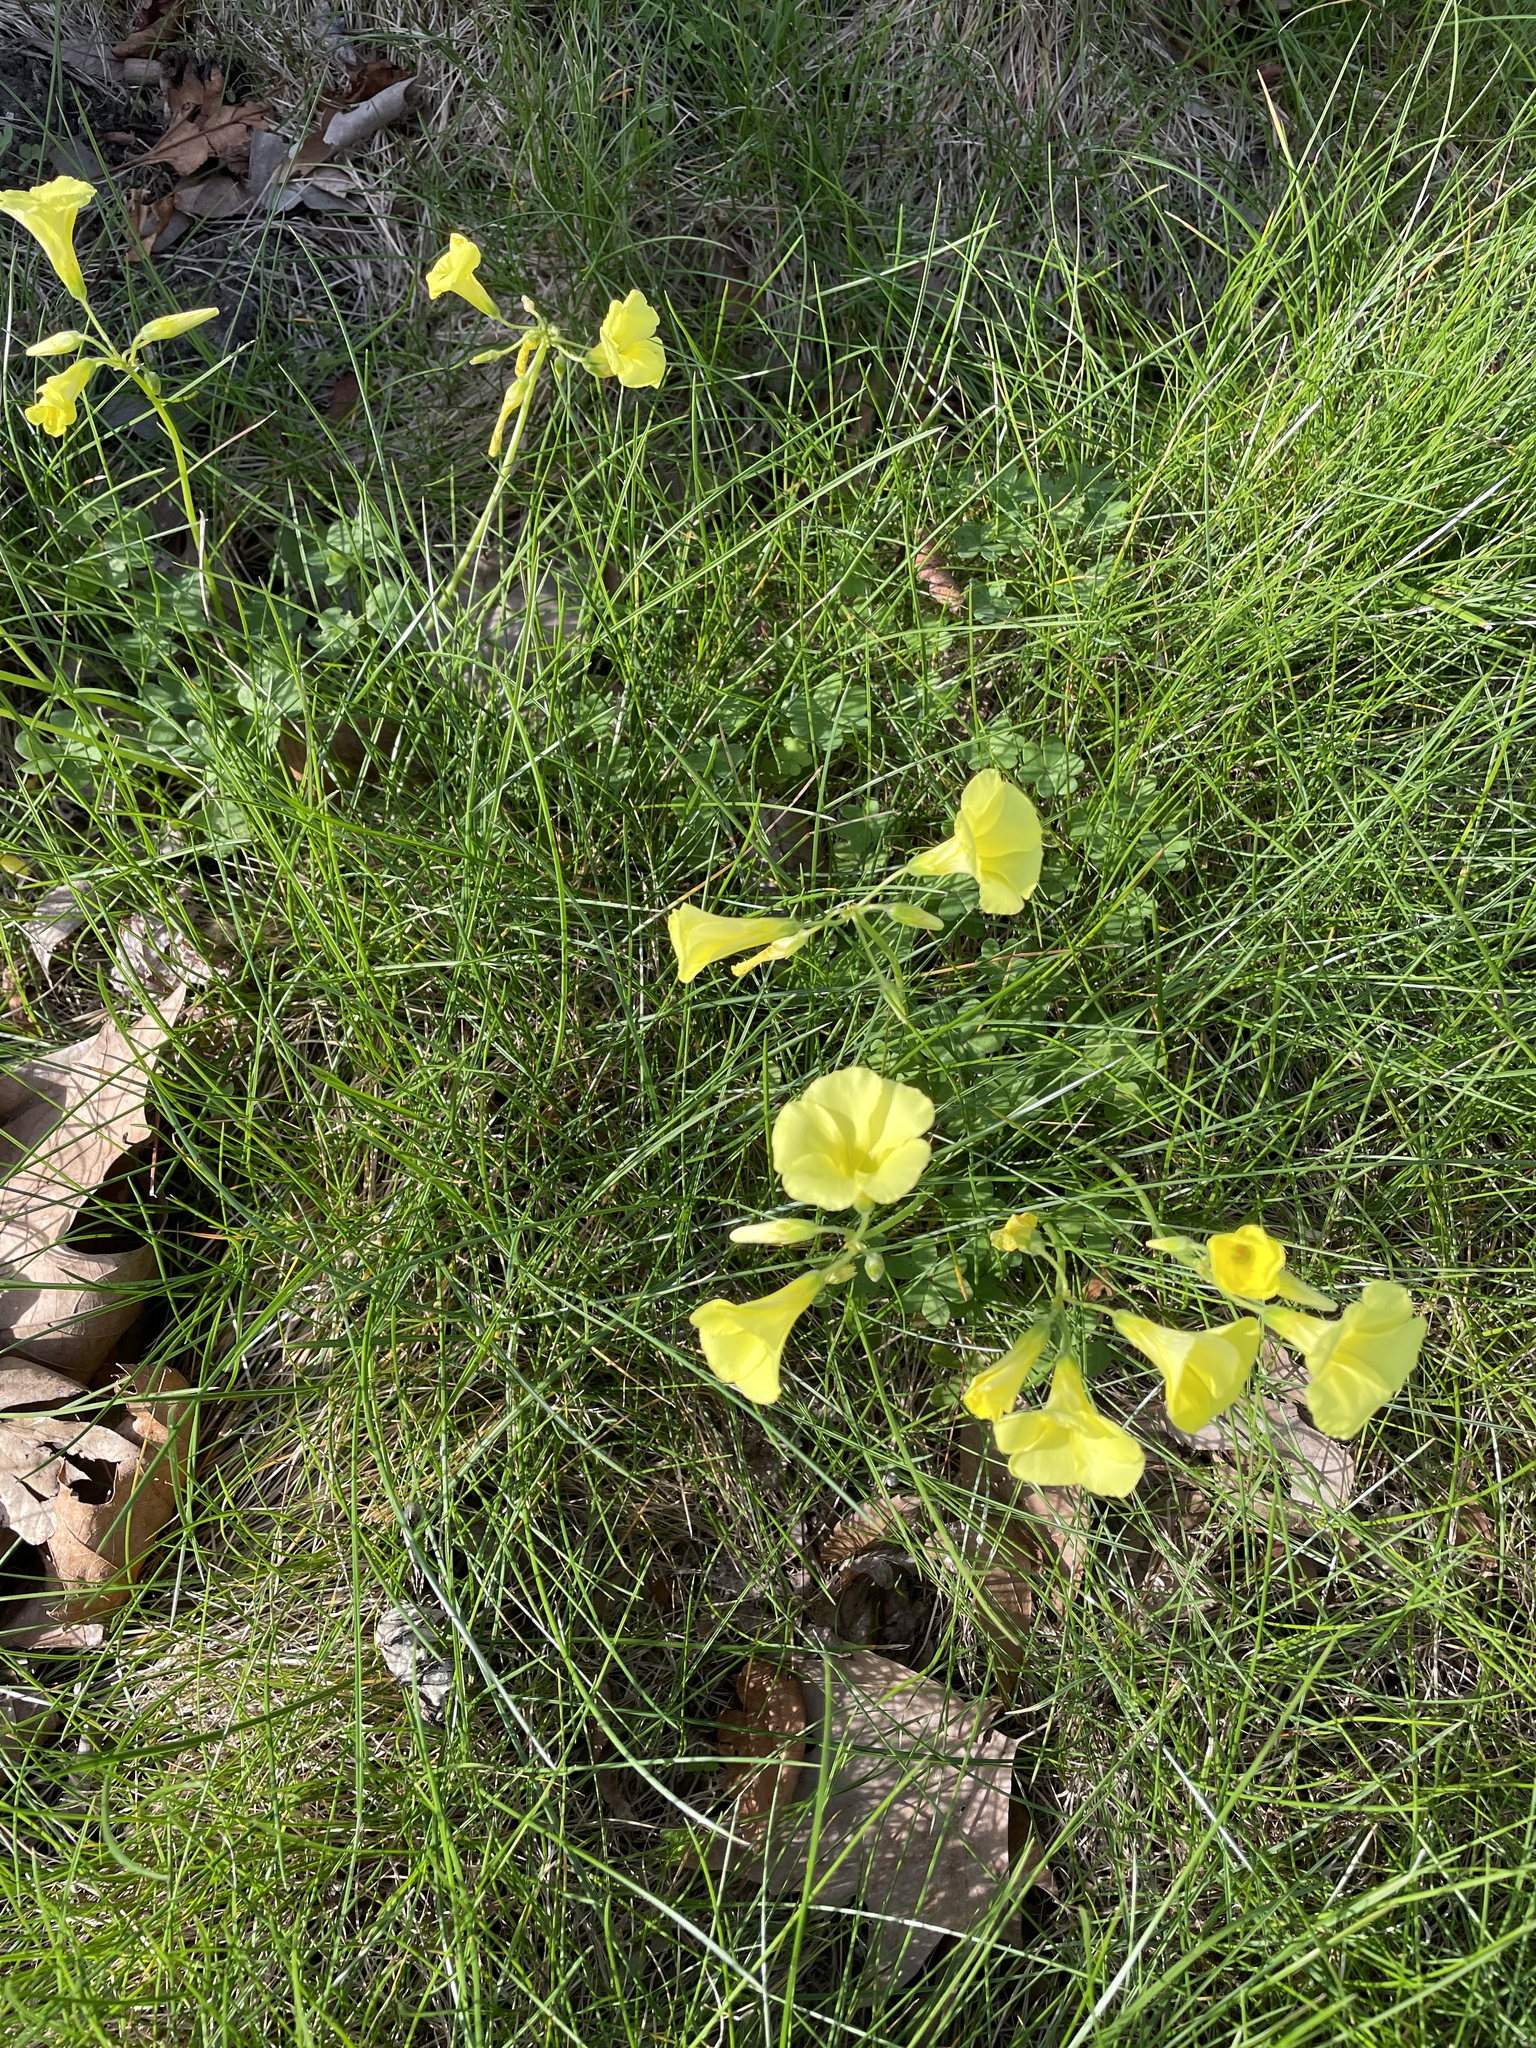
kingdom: Plantae
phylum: Tracheophyta
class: Magnoliopsida
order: Oxalidales
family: Oxalidaceae
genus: Oxalis
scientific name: Oxalis pes-caprae
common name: Bermuda-buttercup
